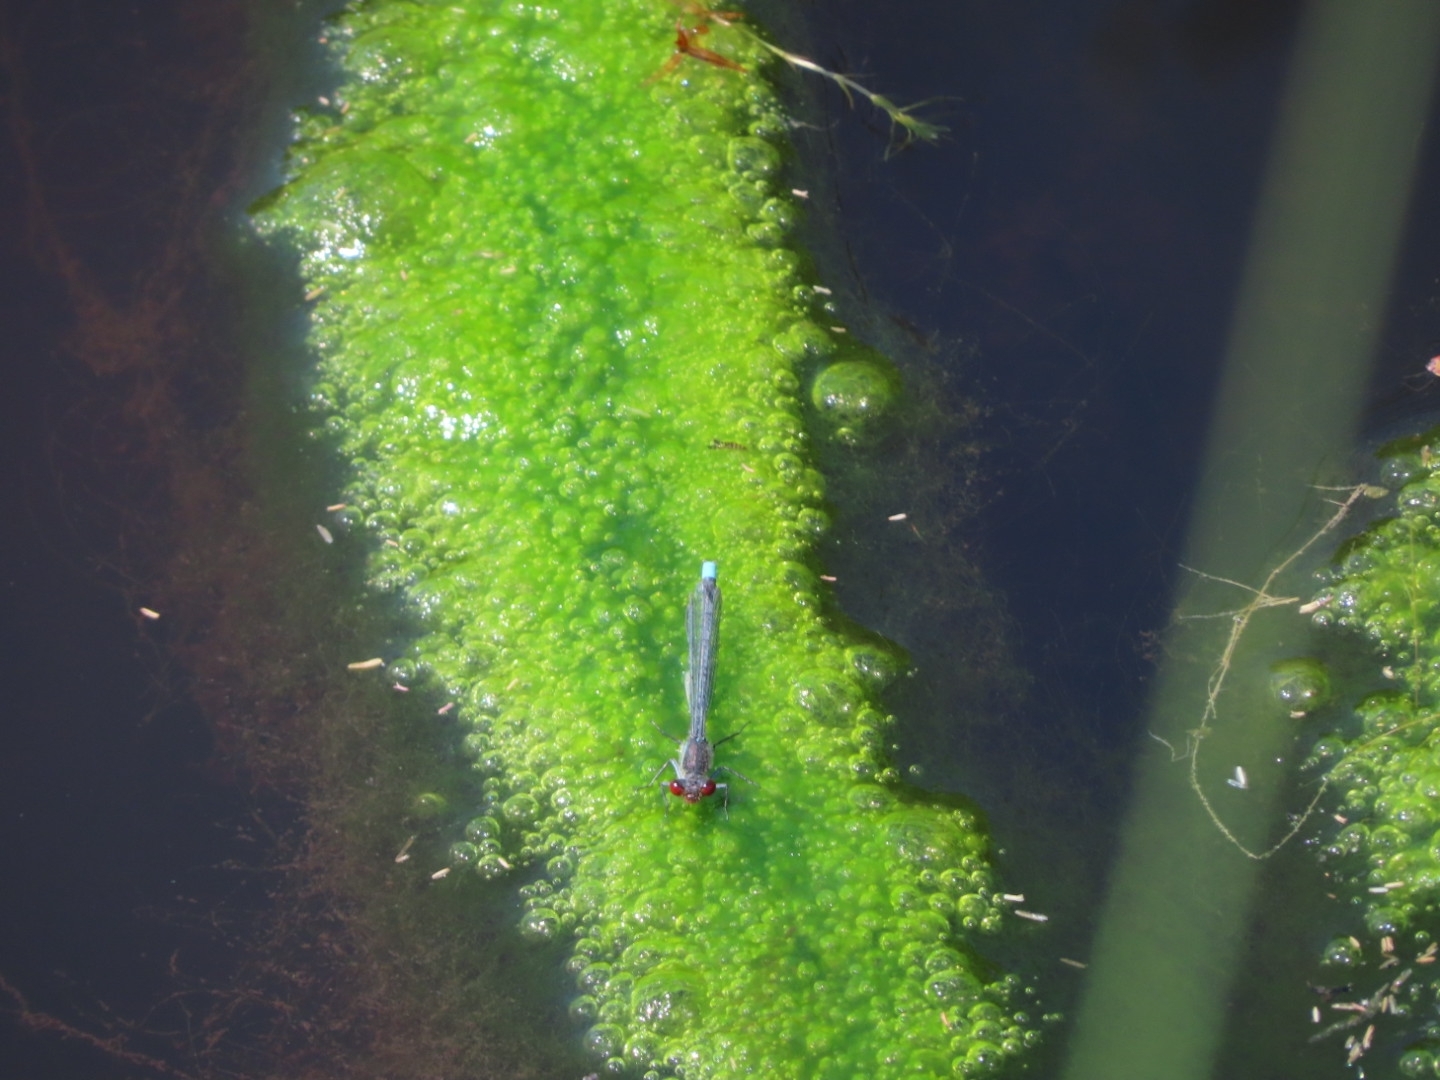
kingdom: Animalia
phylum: Arthropoda
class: Insecta
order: Odonata
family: Coenagrionidae
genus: Erythromma
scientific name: Erythromma najas
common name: Red-eyed damselfly
